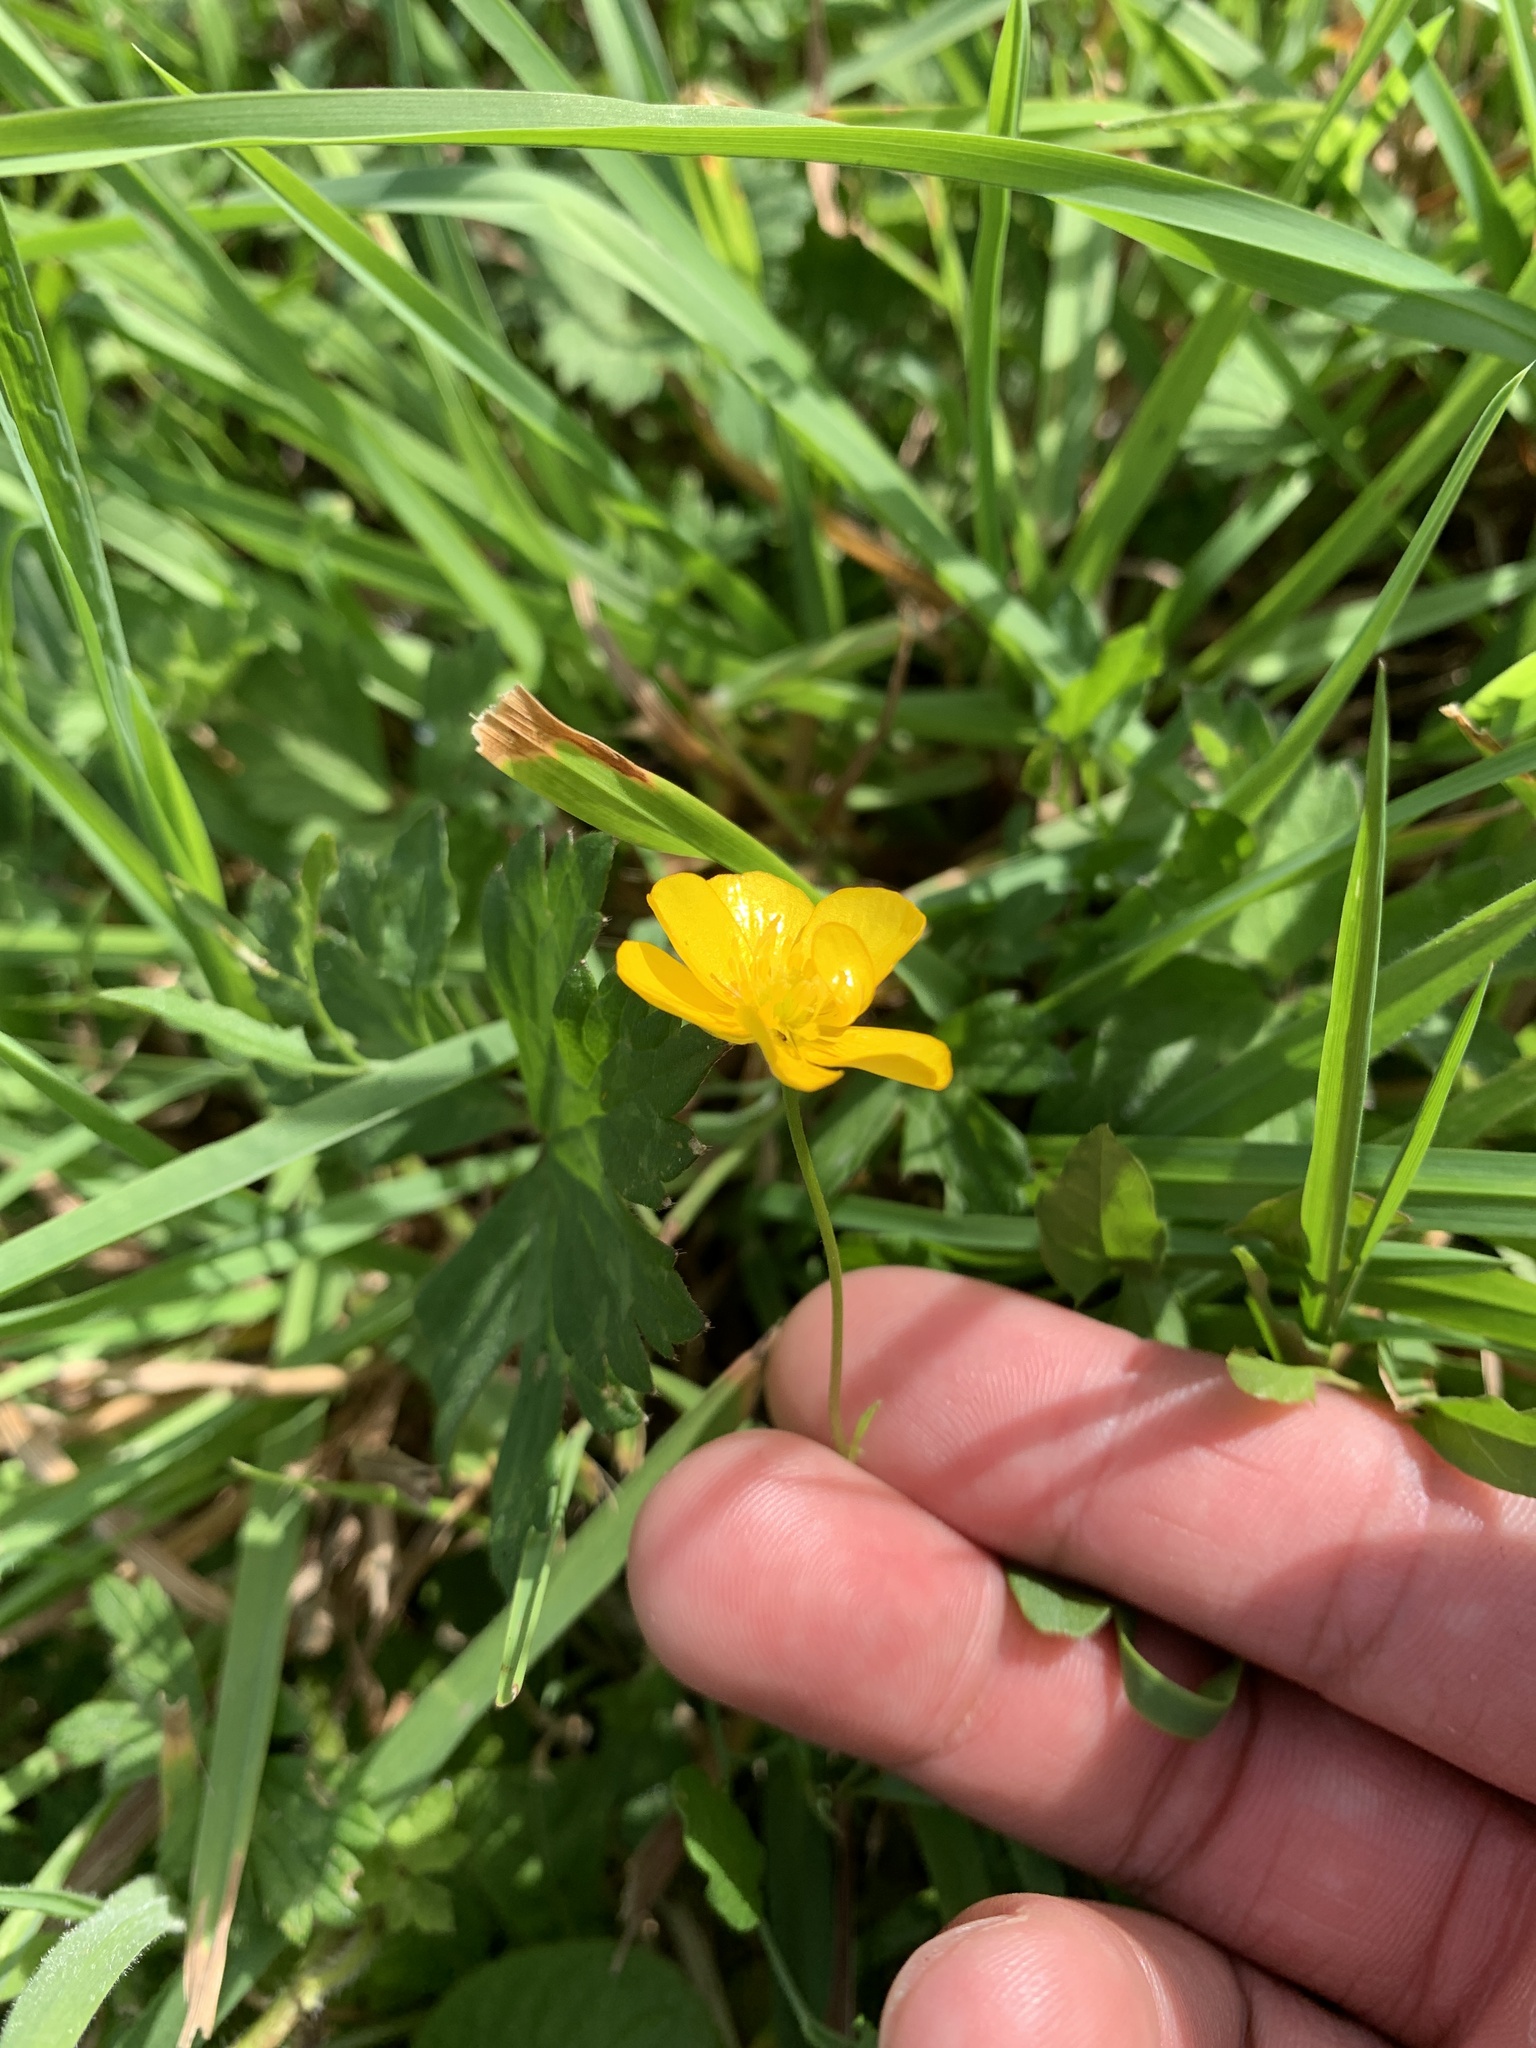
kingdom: Plantae
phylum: Tracheophyta
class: Magnoliopsida
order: Ranunculales
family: Ranunculaceae
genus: Ranunculus
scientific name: Ranunculus acris
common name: Meadow buttercup
